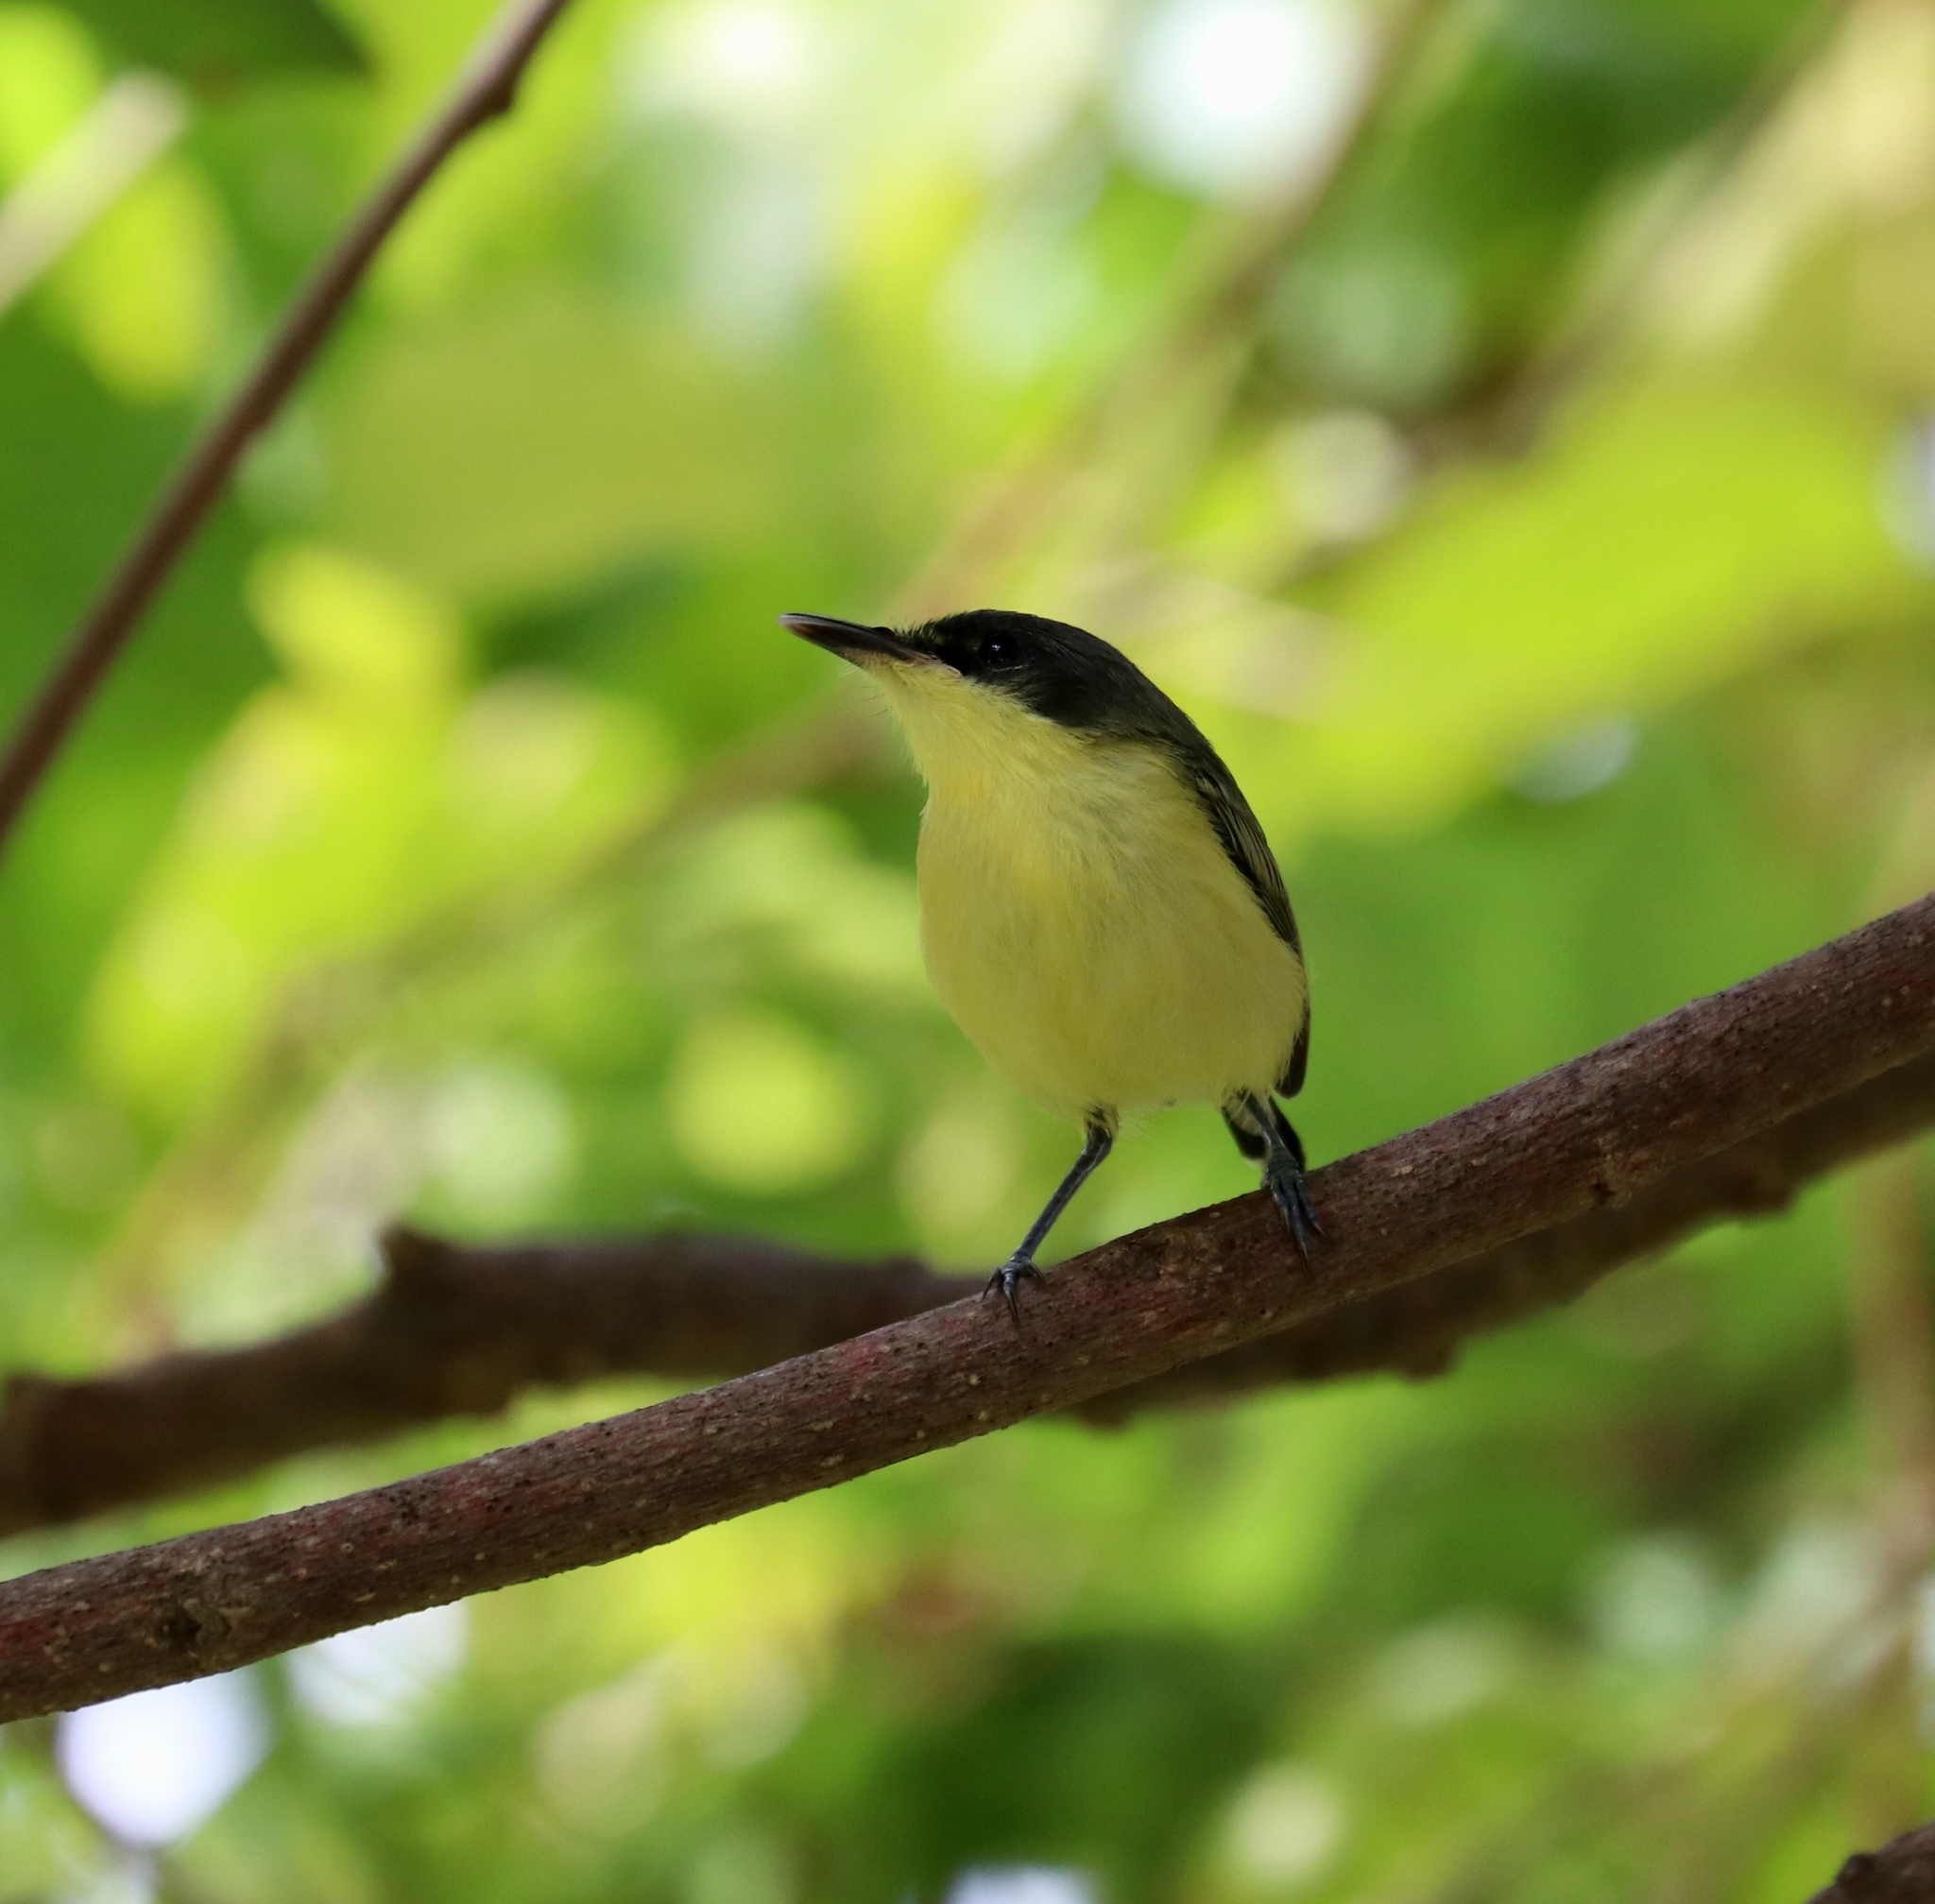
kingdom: Animalia
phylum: Chordata
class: Aves
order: Passeriformes
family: Tyrannidae
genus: Todirostrum
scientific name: Todirostrum cinereum
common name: Common tody-flycatcher
